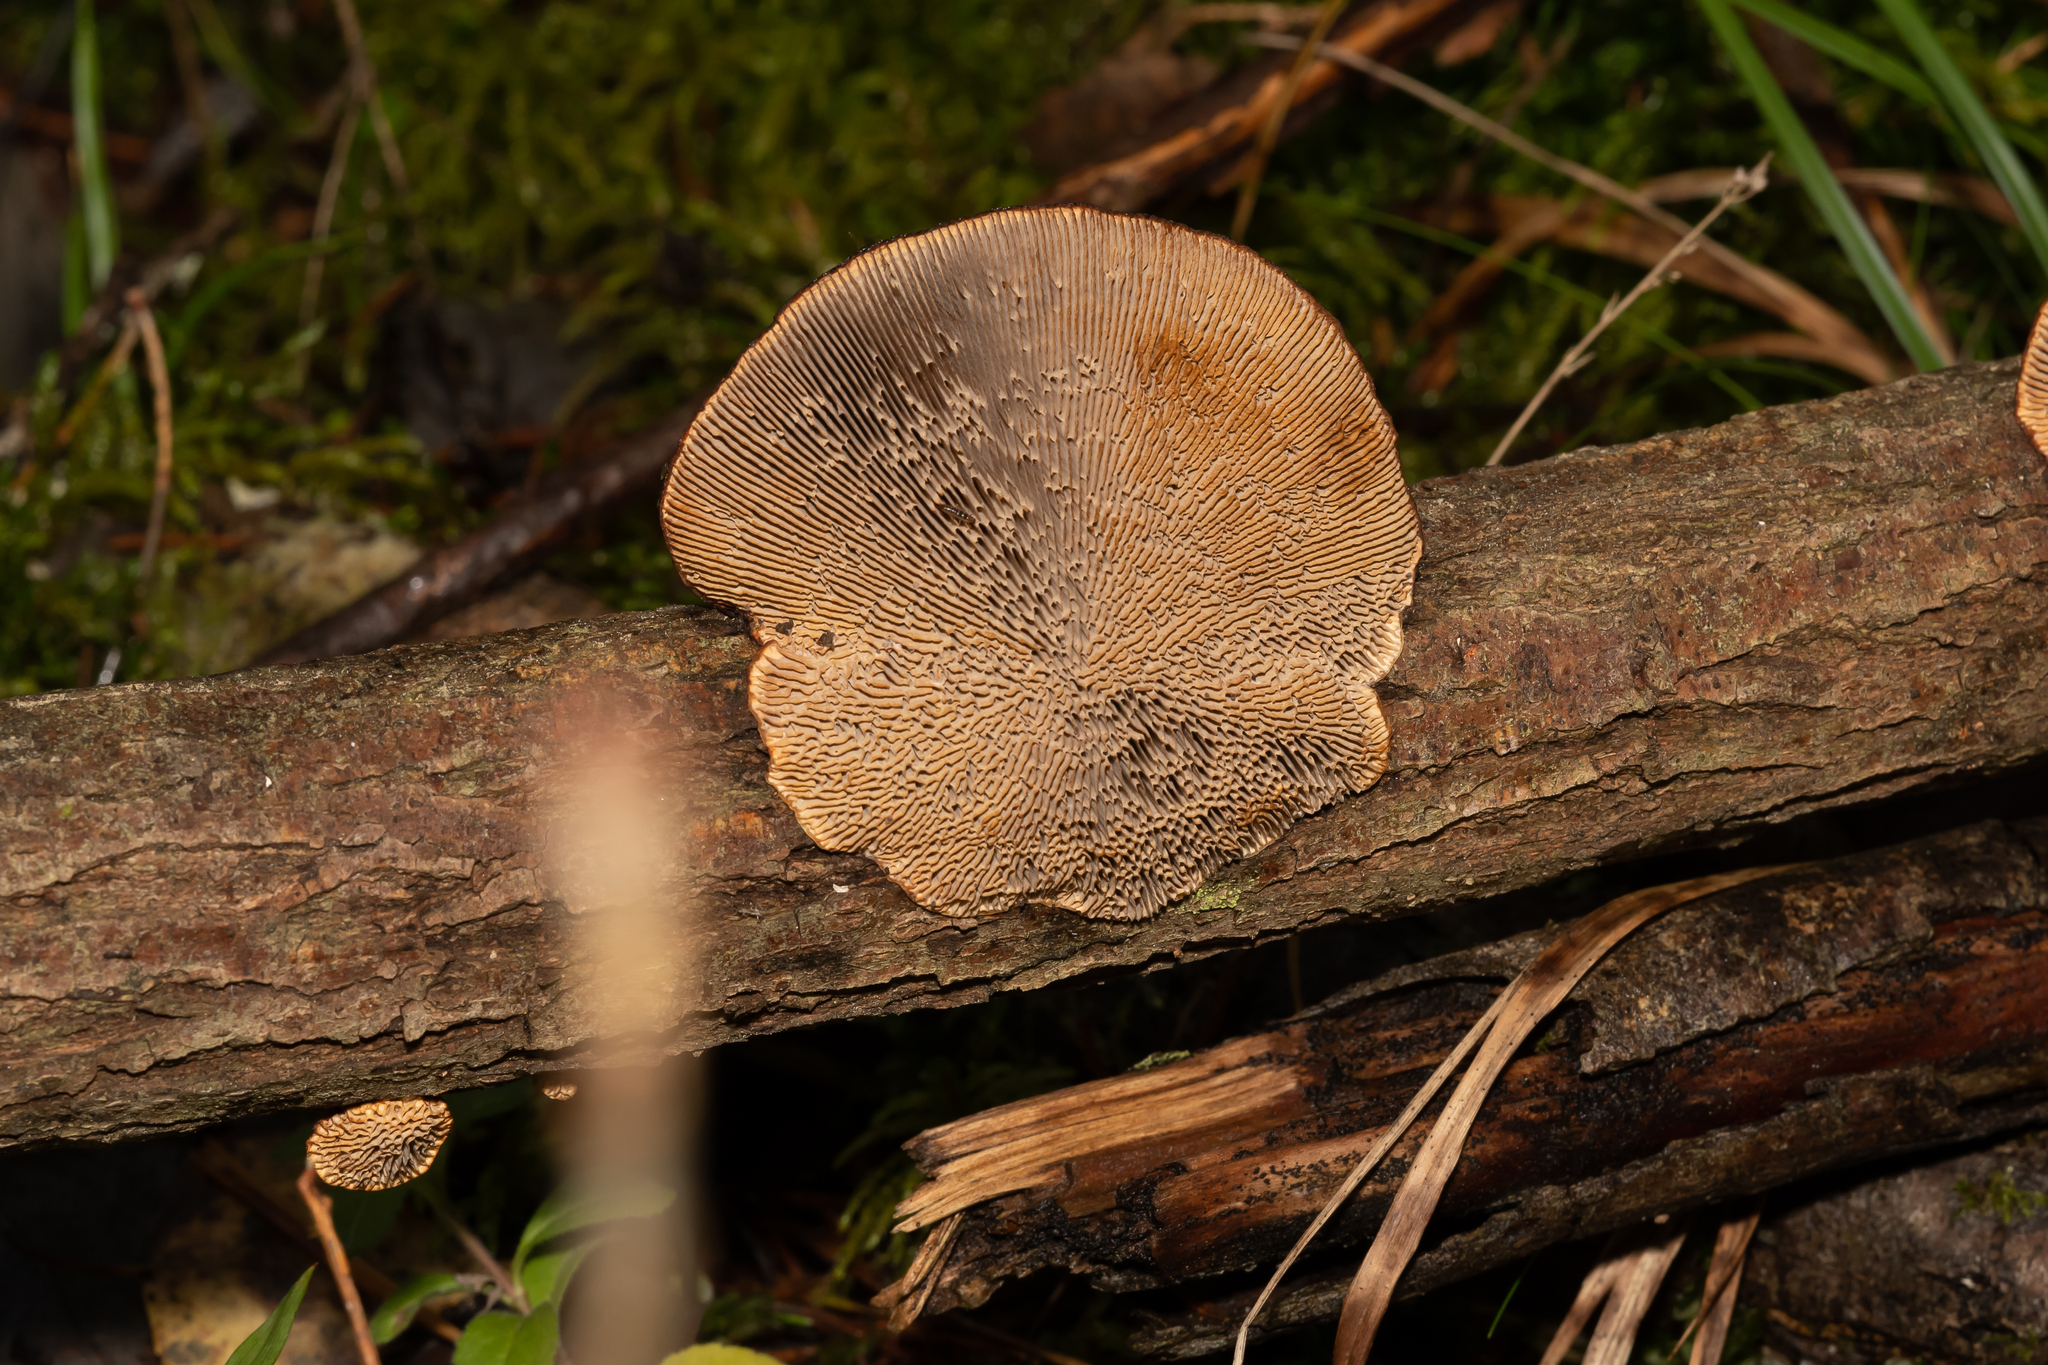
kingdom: Fungi
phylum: Basidiomycota
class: Agaricomycetes
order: Polyporales
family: Polyporaceae
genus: Daedaleopsis
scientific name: Daedaleopsis tricolor
